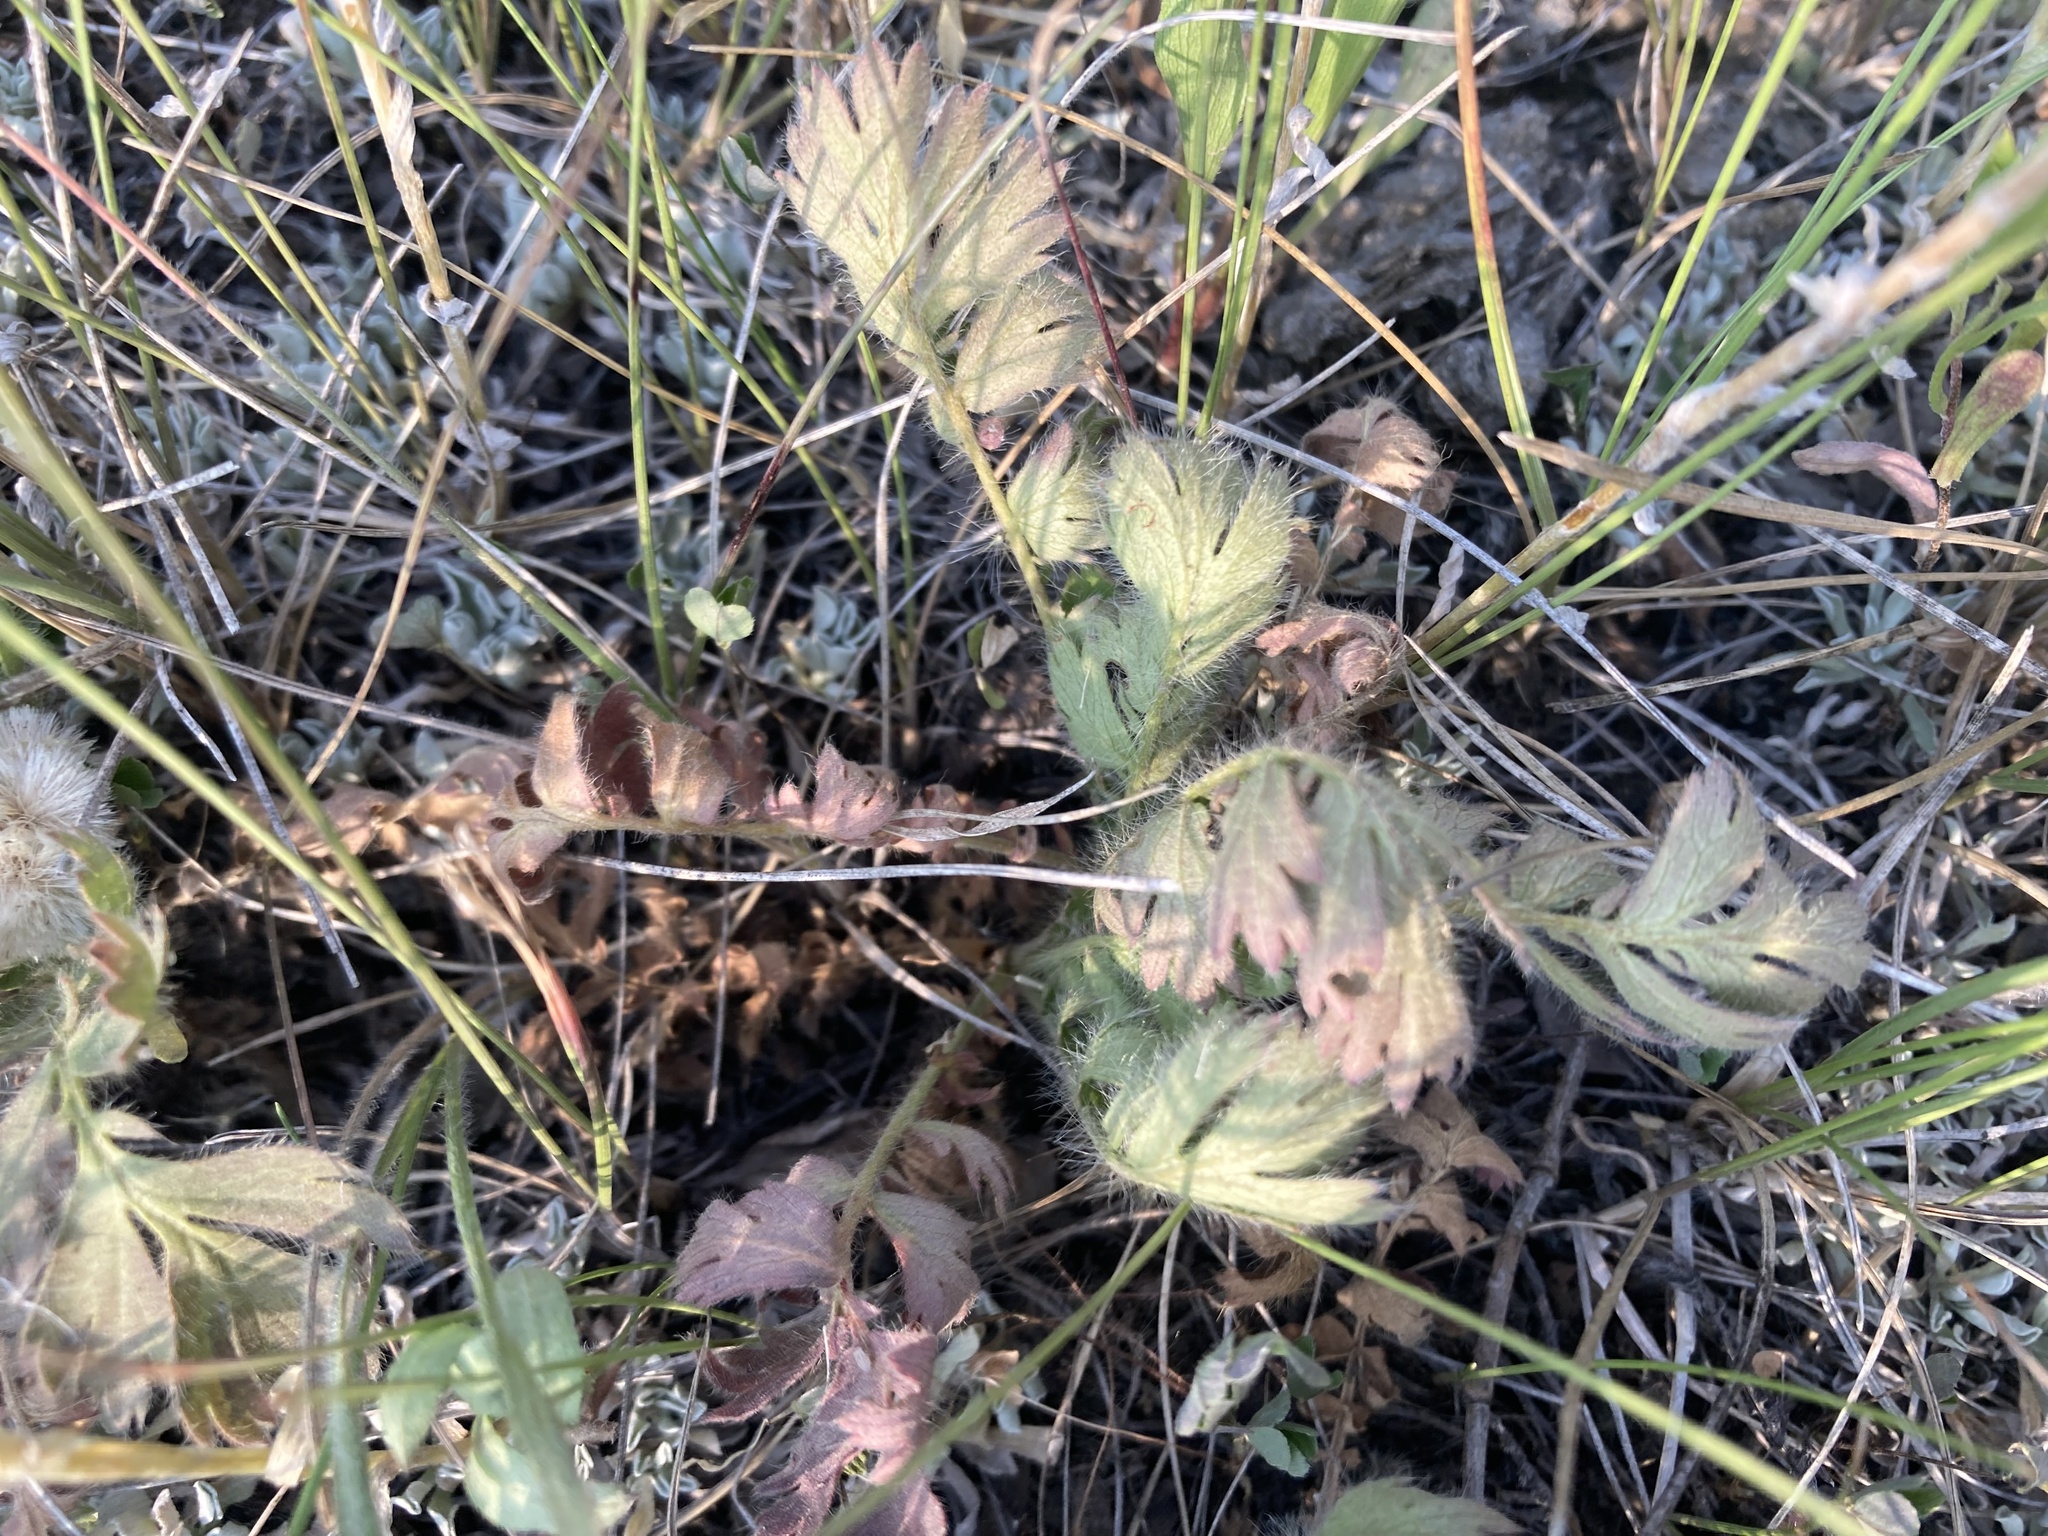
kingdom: Plantae
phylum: Tracheophyta
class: Magnoliopsida
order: Rosales
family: Rosaceae
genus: Geum
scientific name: Geum triflorum
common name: Old man's whiskers
